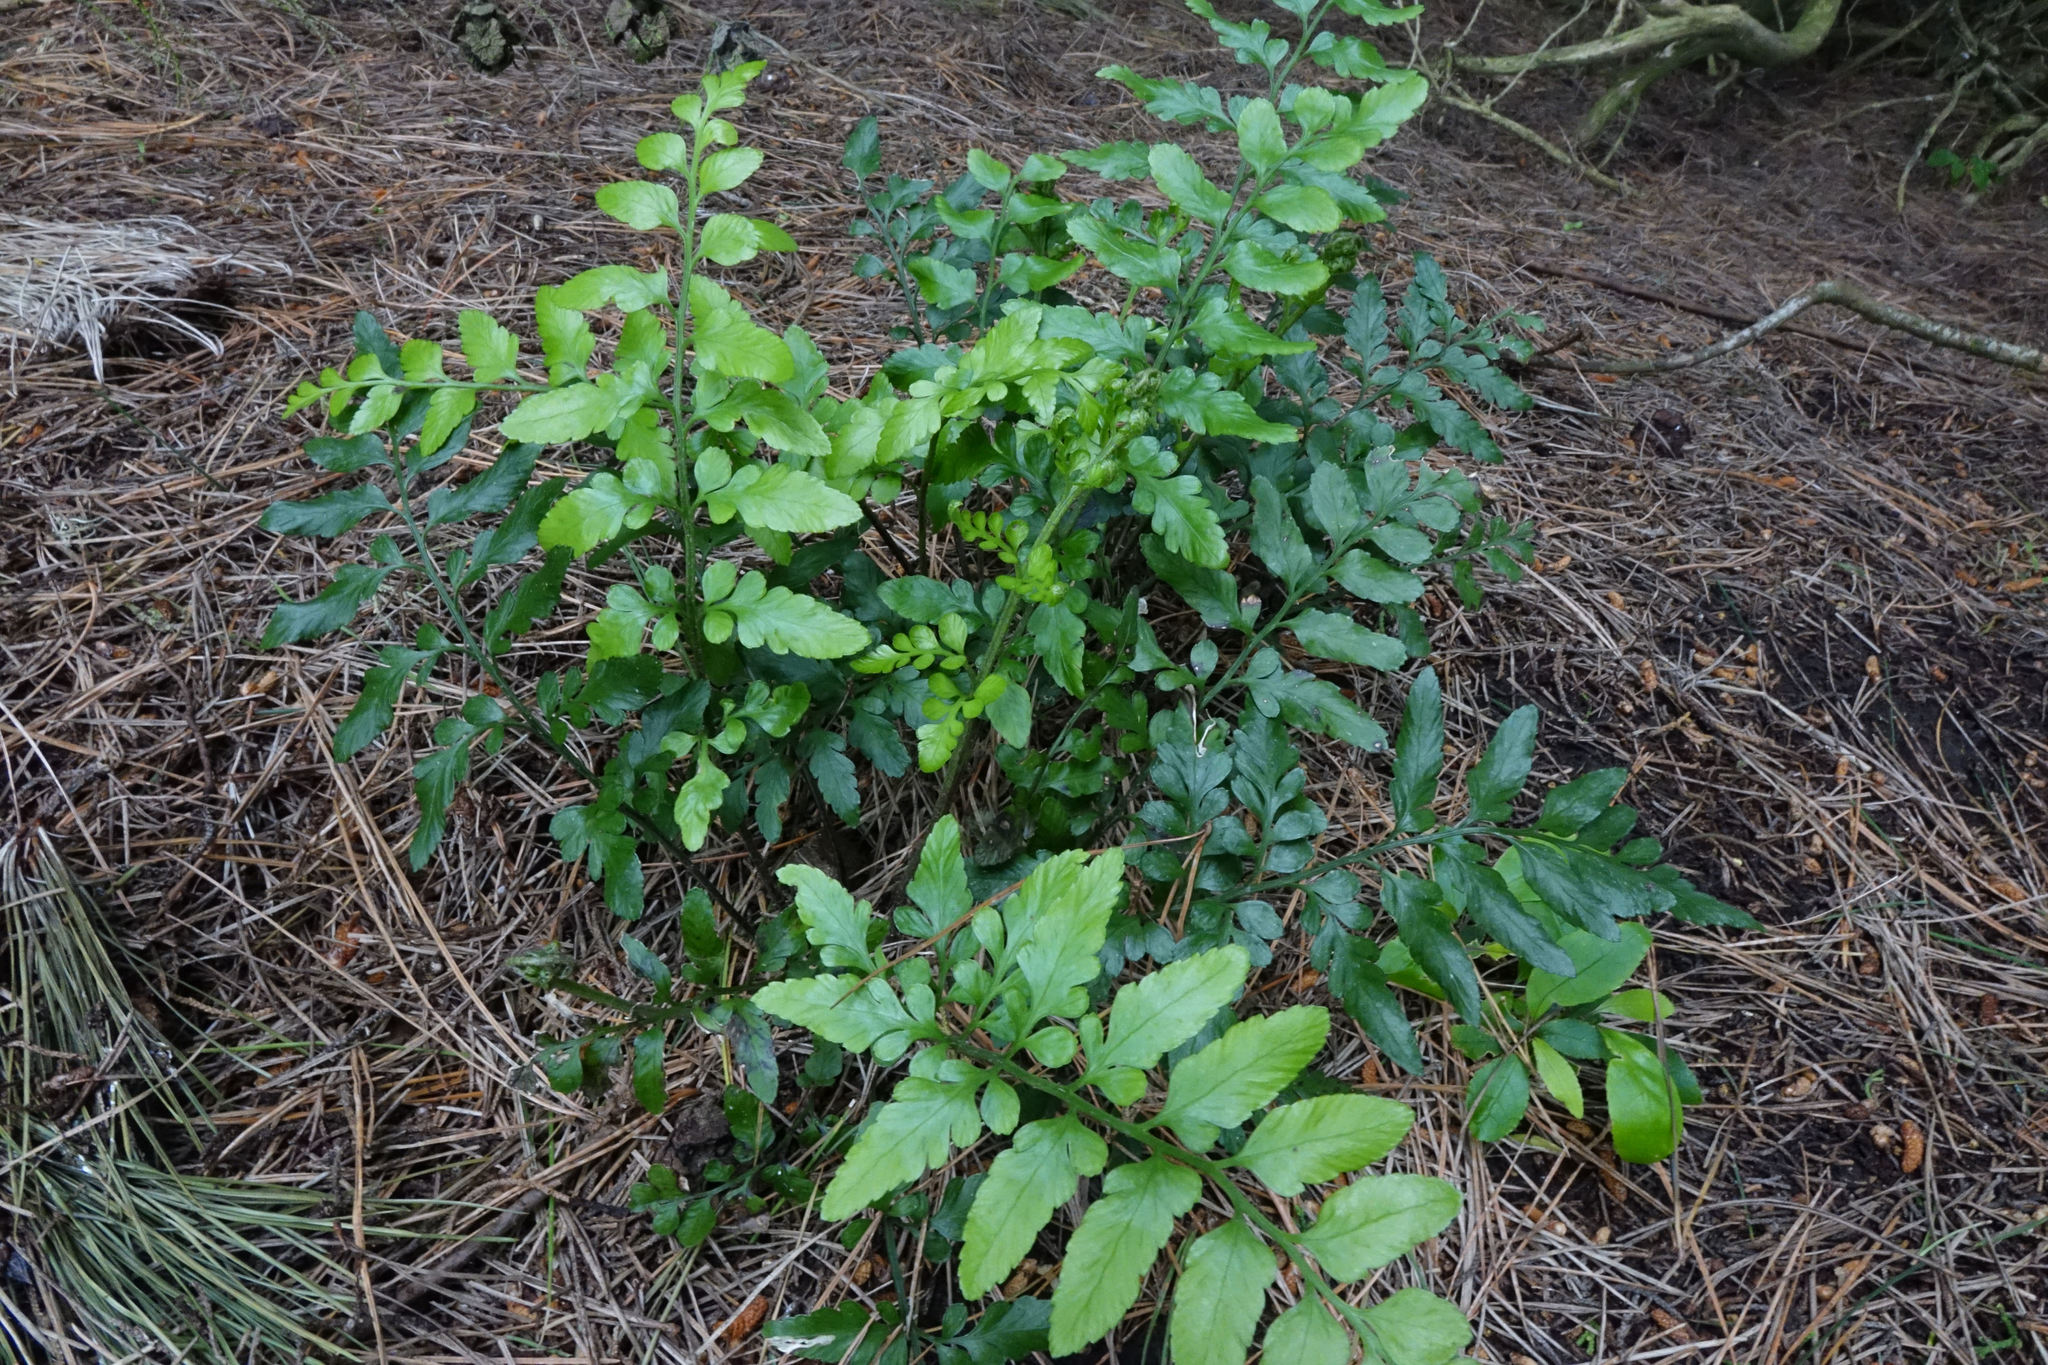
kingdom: Plantae
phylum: Tracheophyta
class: Polypodiopsida
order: Polypodiales
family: Aspleniaceae
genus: Asplenium
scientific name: Asplenium lyallii
